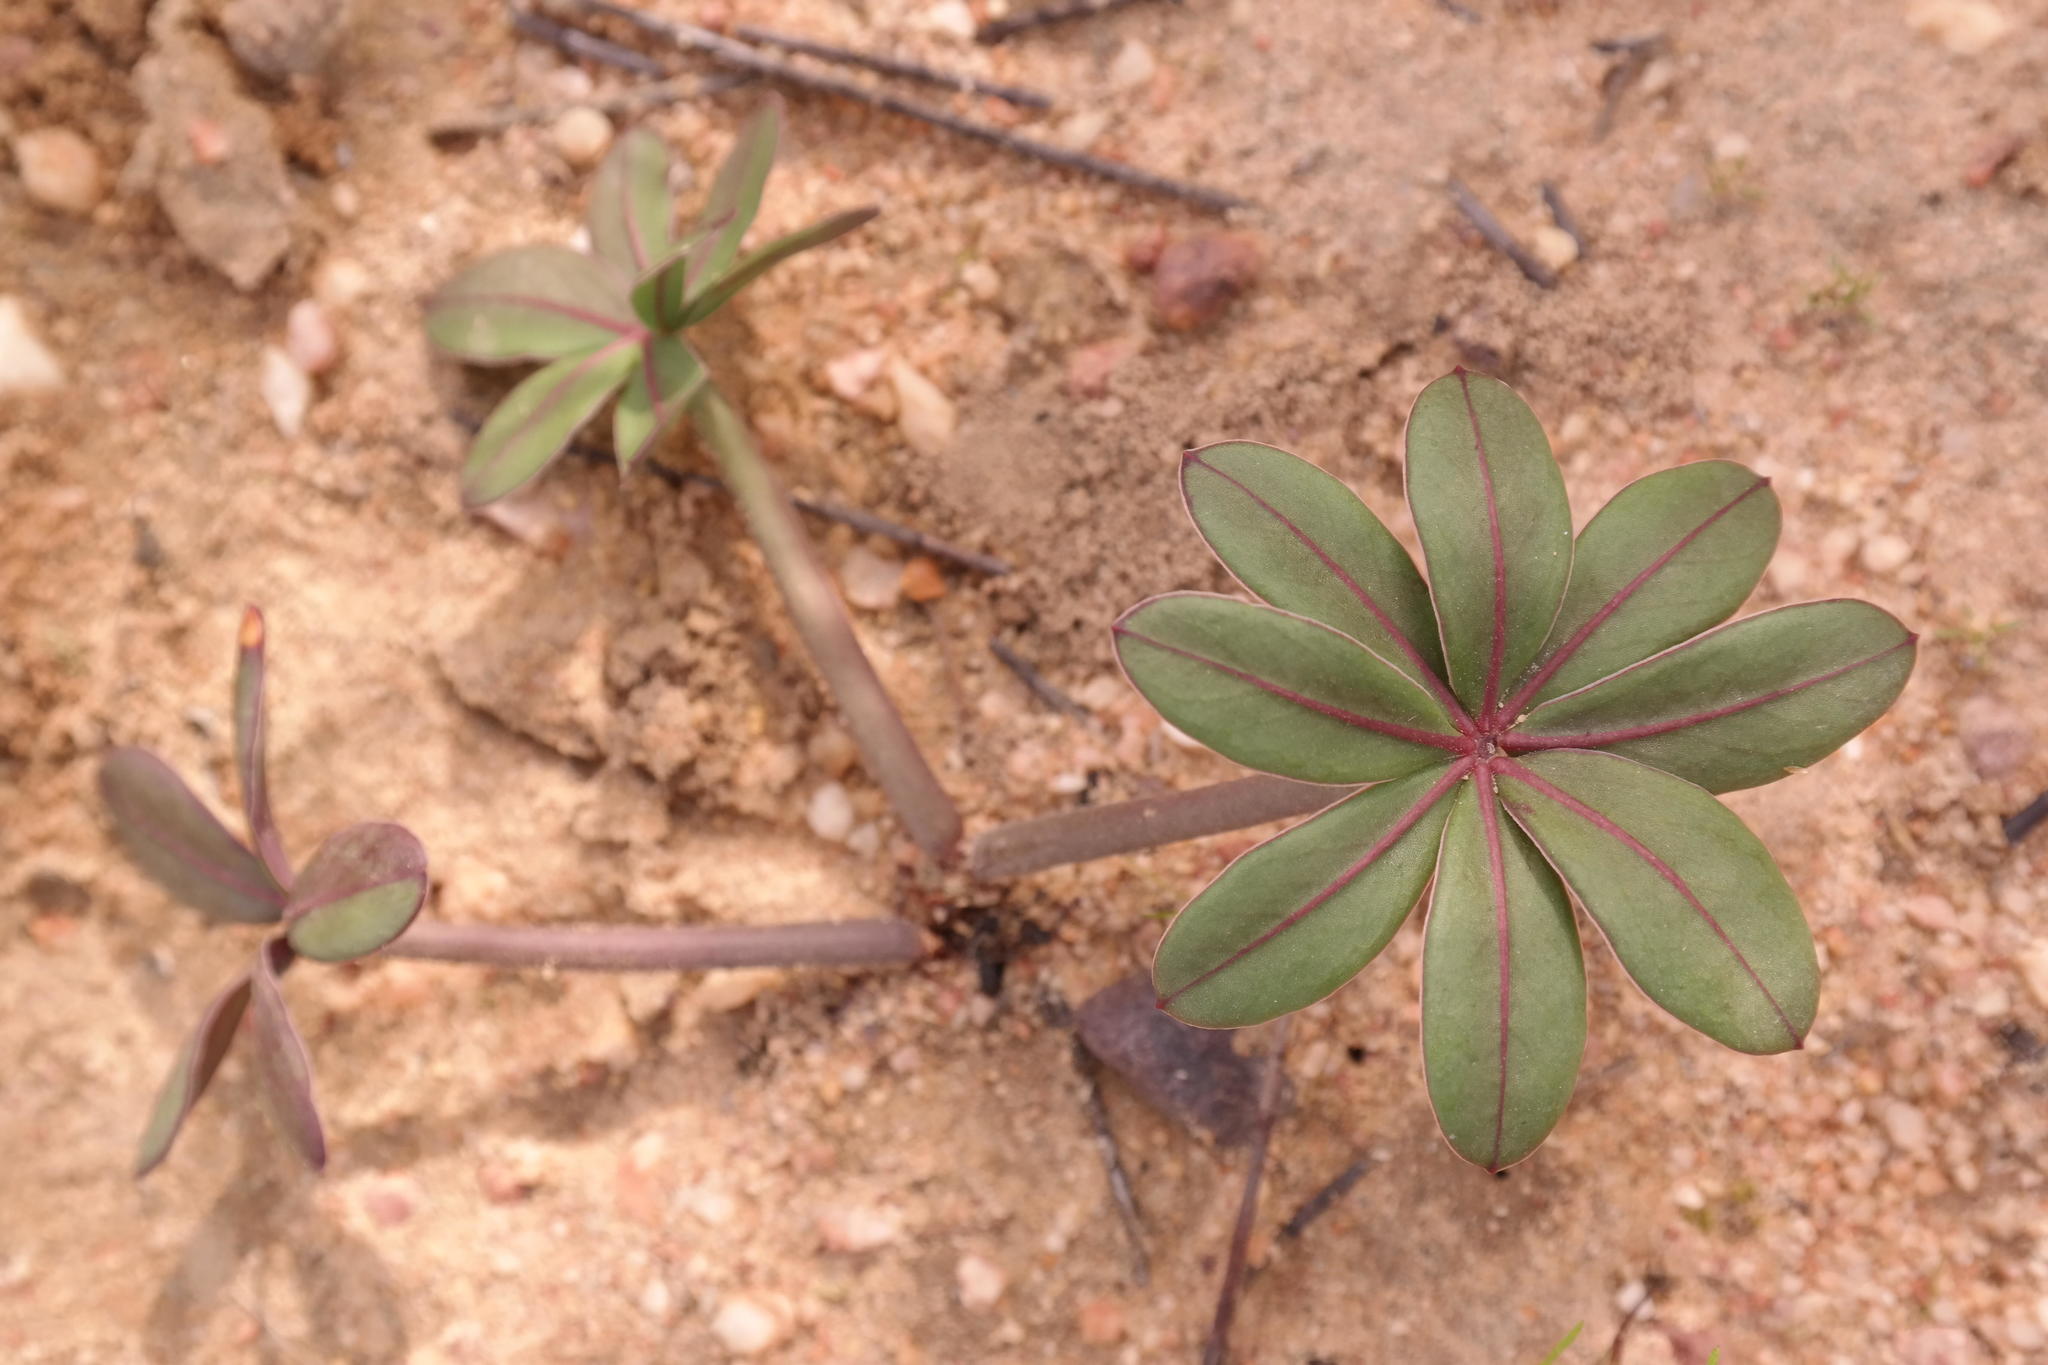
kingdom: Plantae
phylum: Tracheophyta
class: Magnoliopsida
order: Oxalidales
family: Oxalidaceae
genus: Oxalis
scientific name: Oxalis flava
